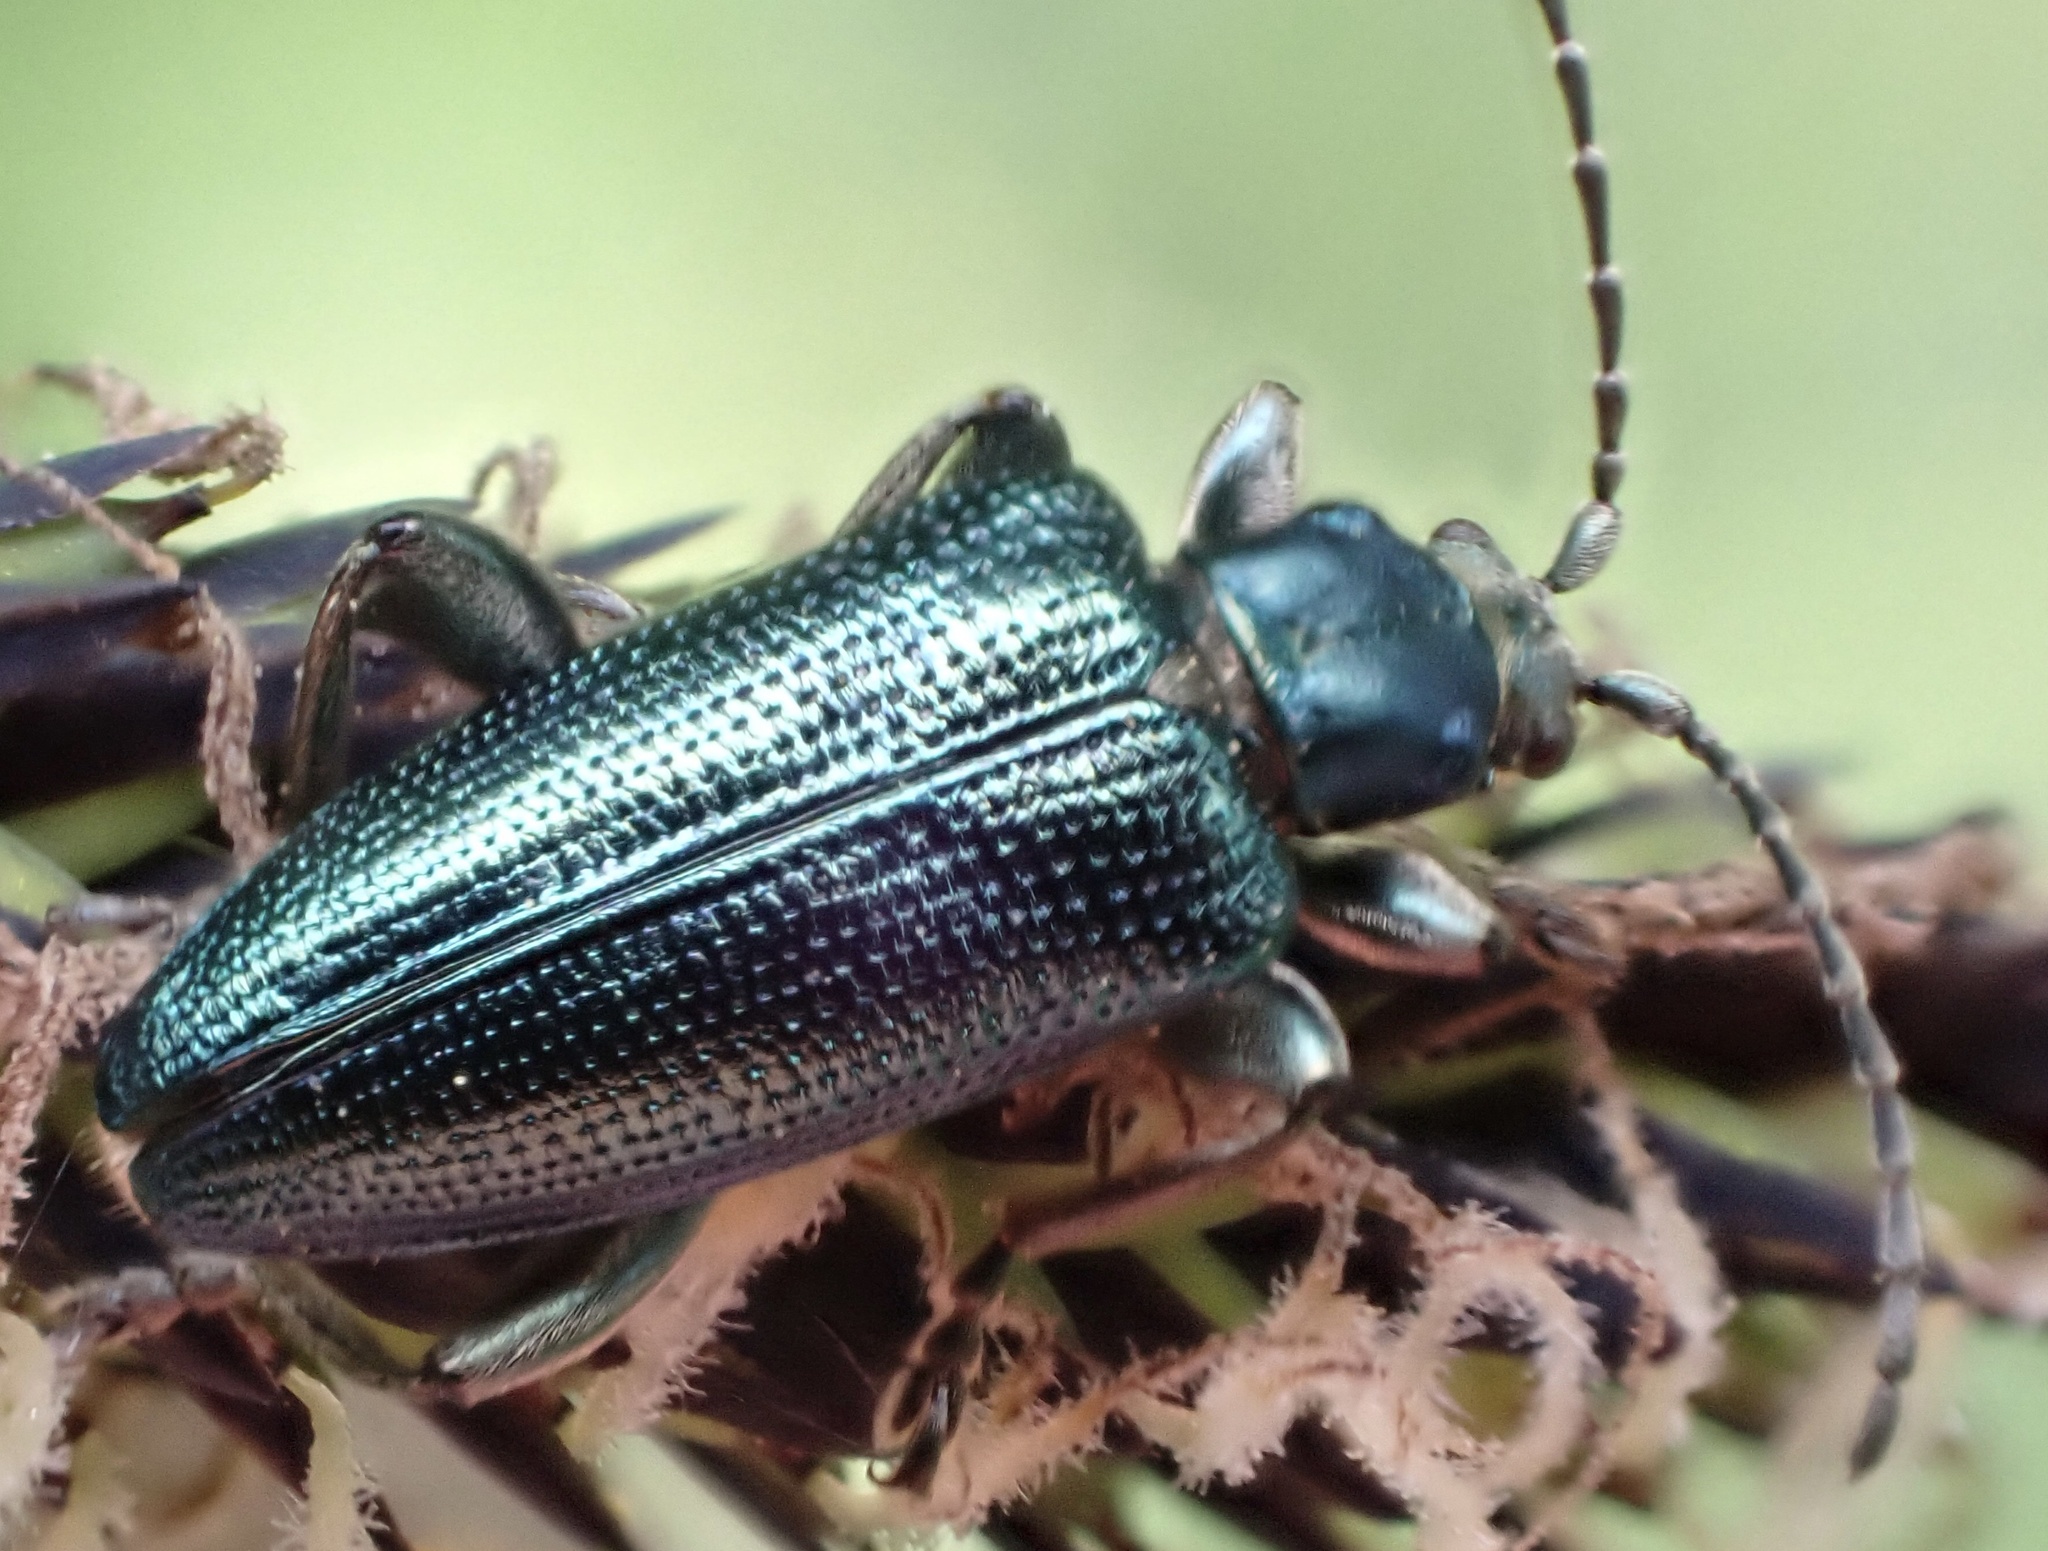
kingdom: Animalia
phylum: Arthropoda
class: Insecta
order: Coleoptera
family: Chrysomelidae
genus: Plateumaris
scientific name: Plateumaris sericea
